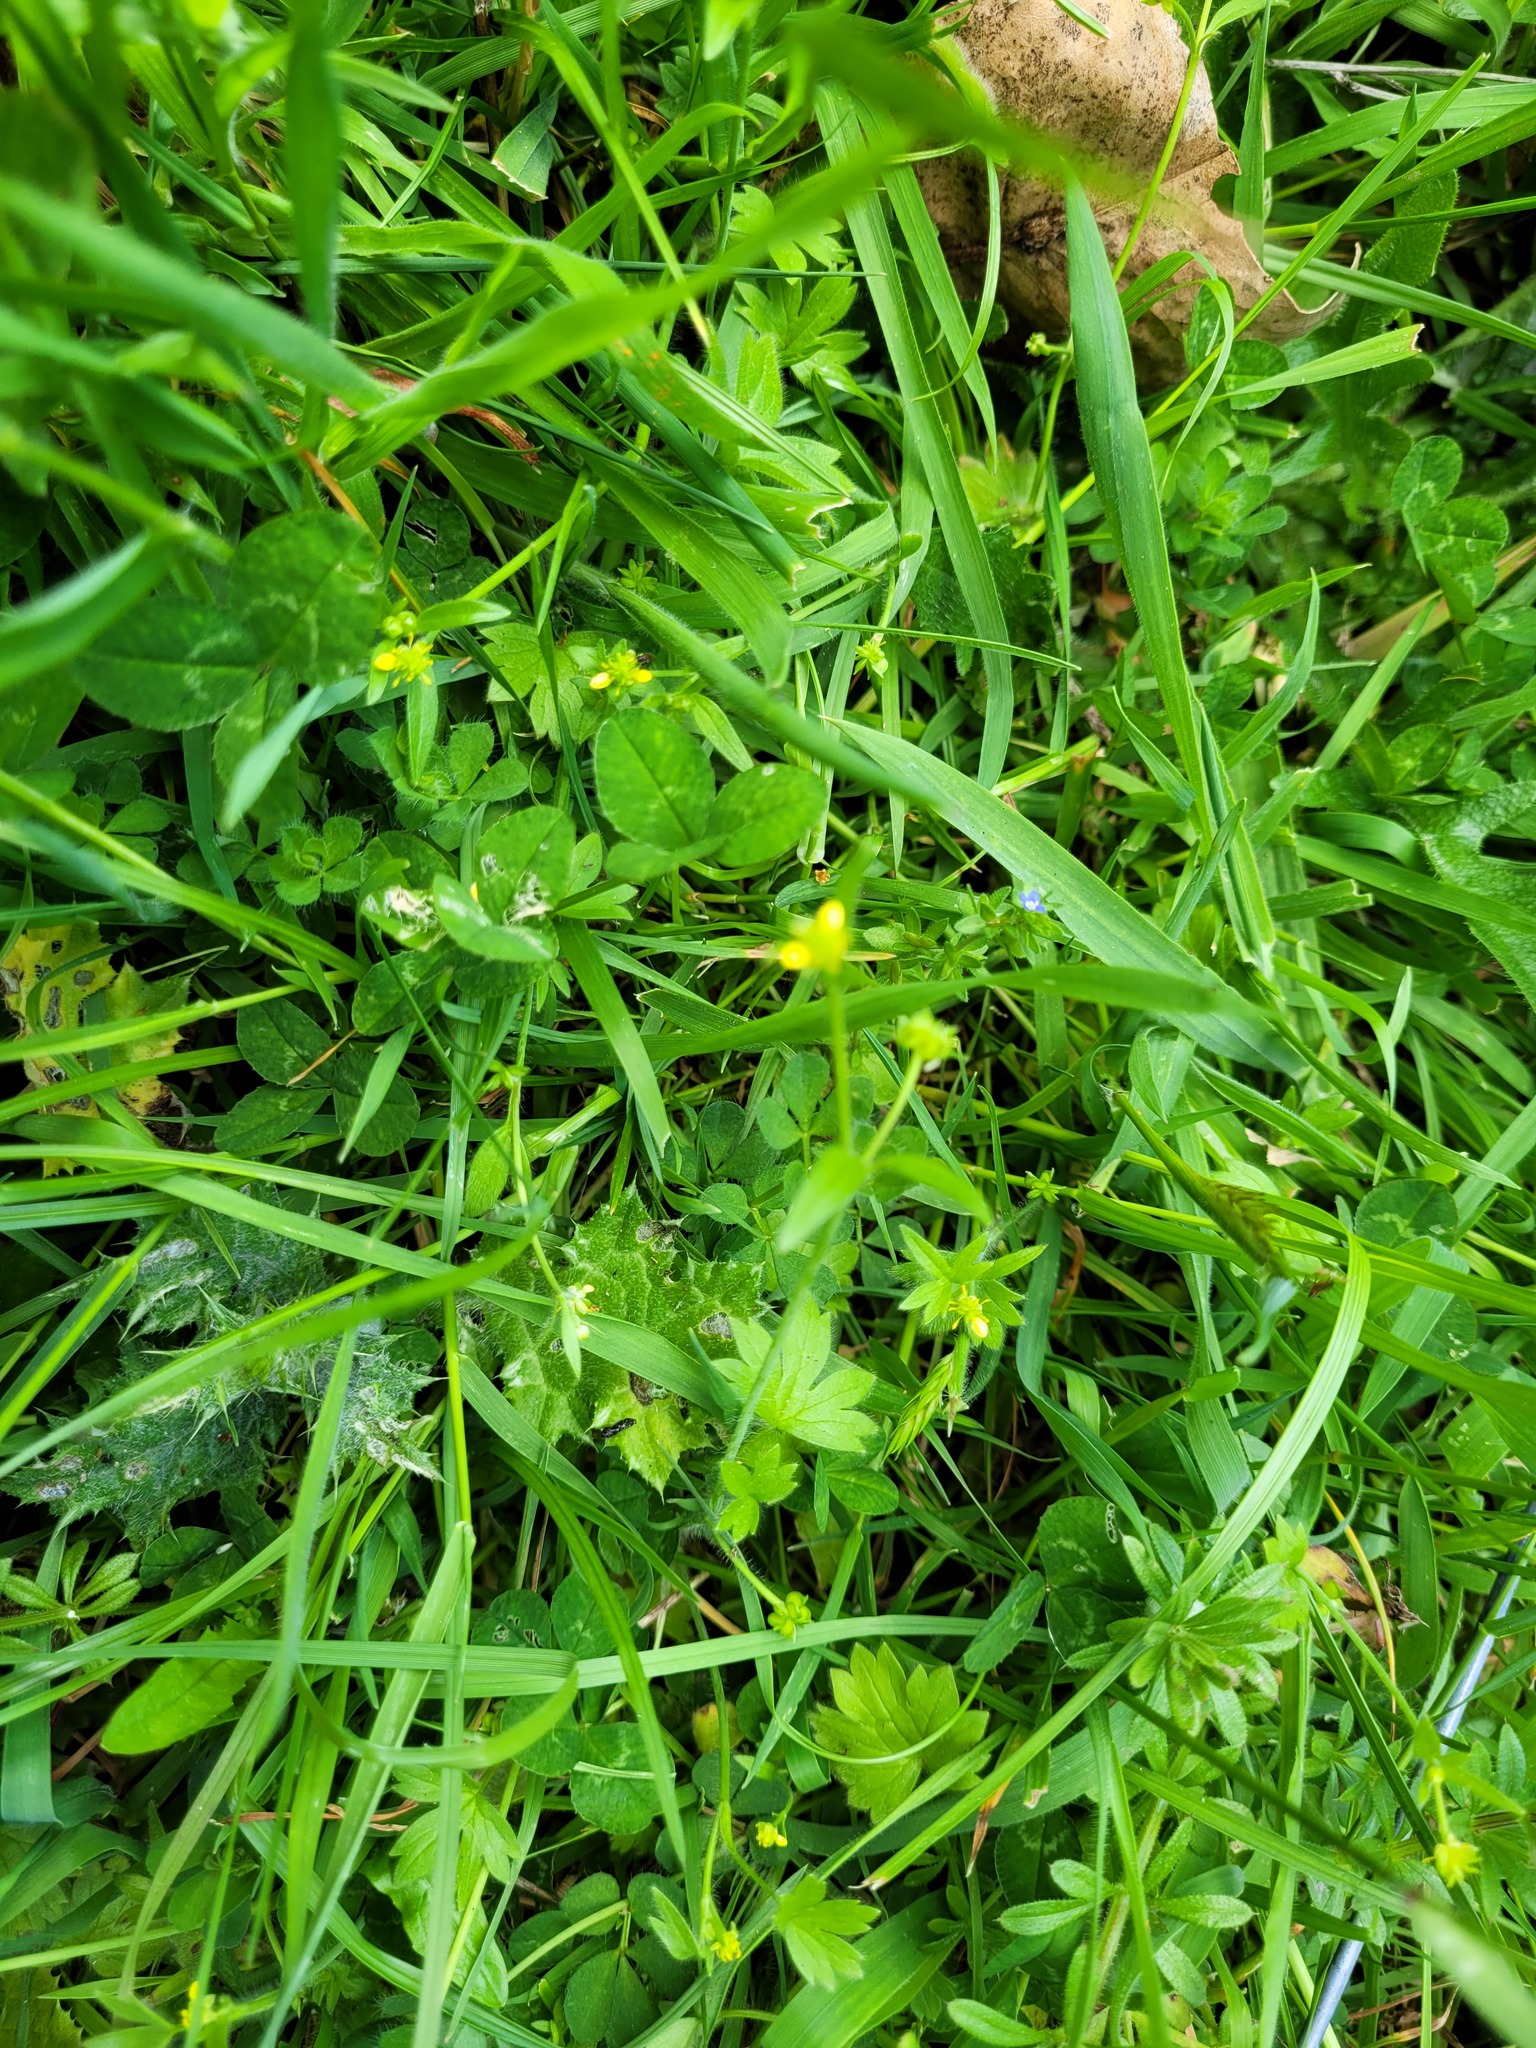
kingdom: Plantae
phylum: Tracheophyta
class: Magnoliopsida
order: Ranunculales
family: Ranunculaceae
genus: Ranunculus
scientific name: Ranunculus parviflorus
